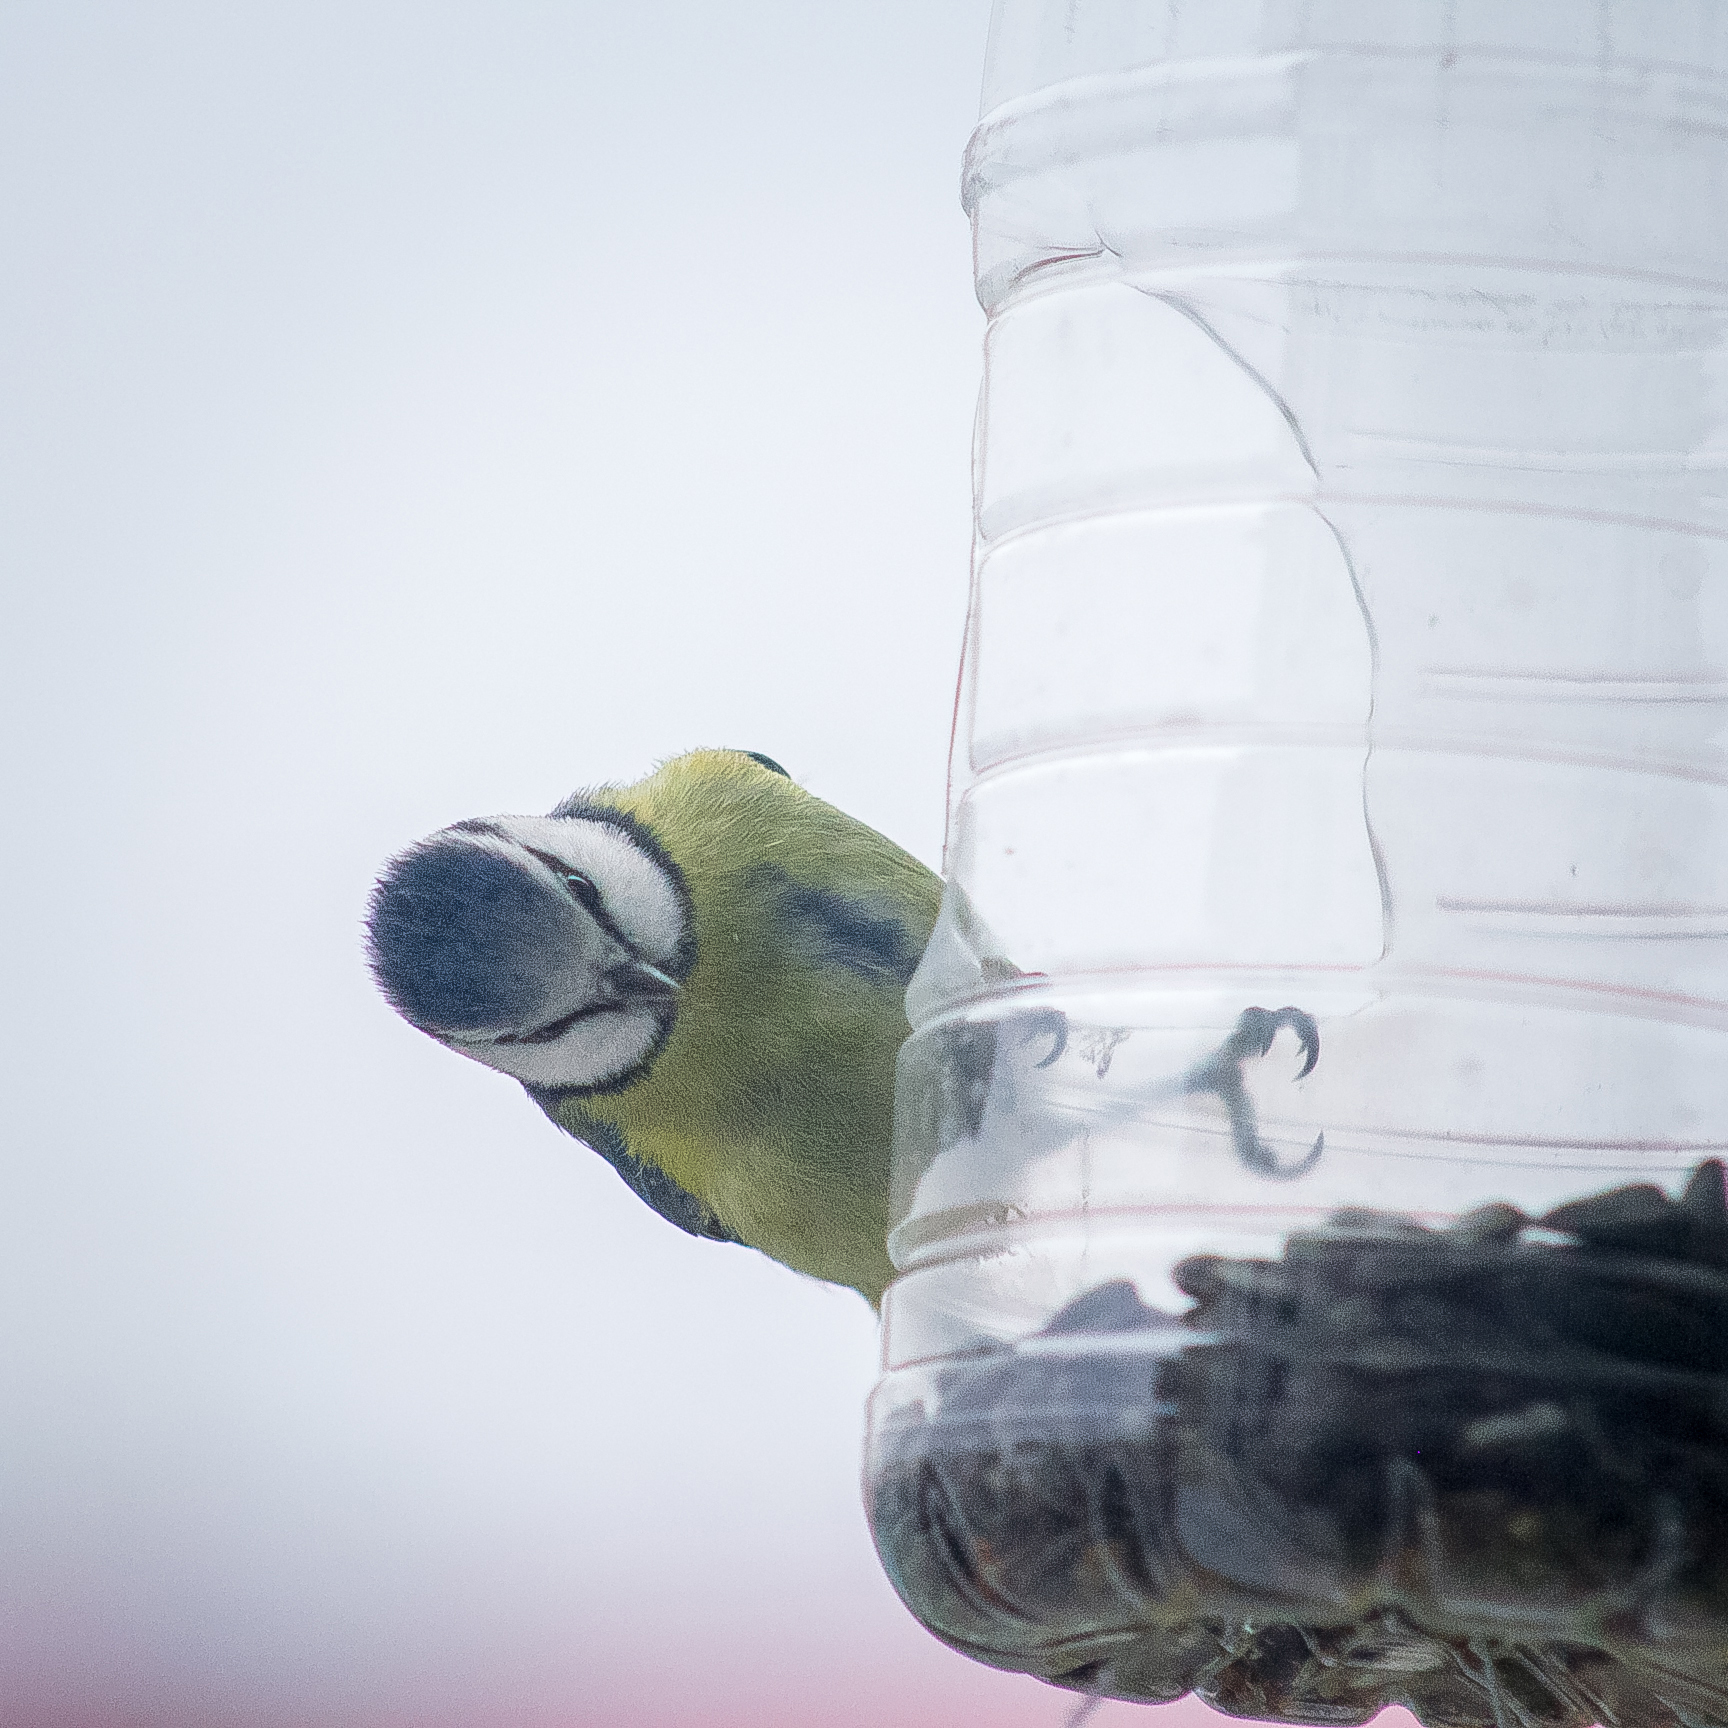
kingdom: Animalia
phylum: Chordata
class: Aves
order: Passeriformes
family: Paridae
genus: Cyanistes
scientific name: Cyanistes caeruleus
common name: Eurasian blue tit
